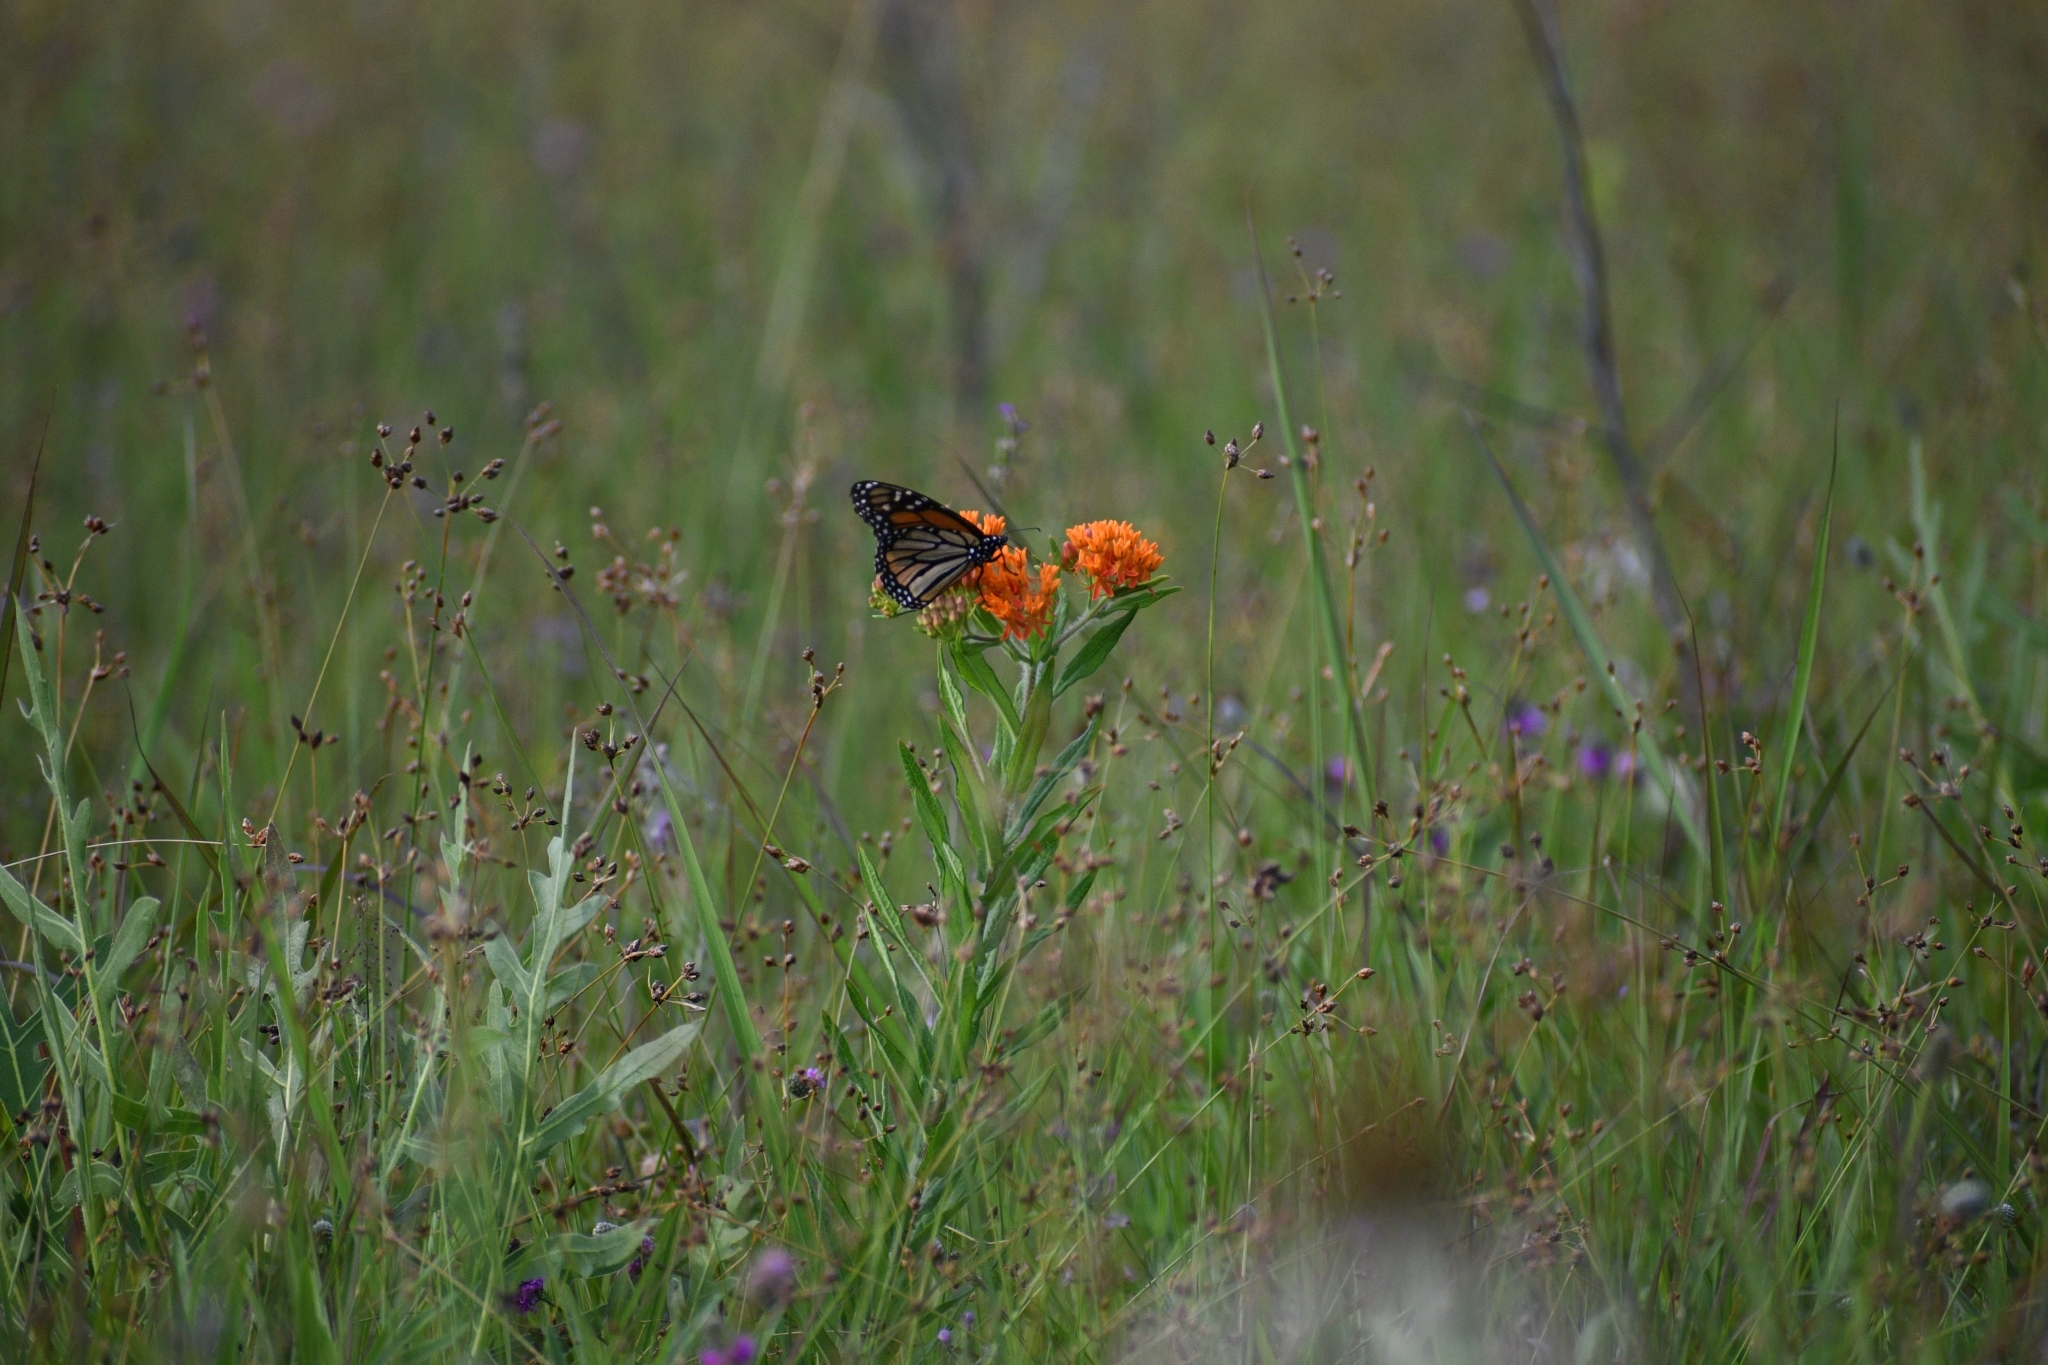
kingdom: Animalia
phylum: Arthropoda
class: Insecta
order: Lepidoptera
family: Nymphalidae
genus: Danaus
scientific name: Danaus plexippus
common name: Monarch
